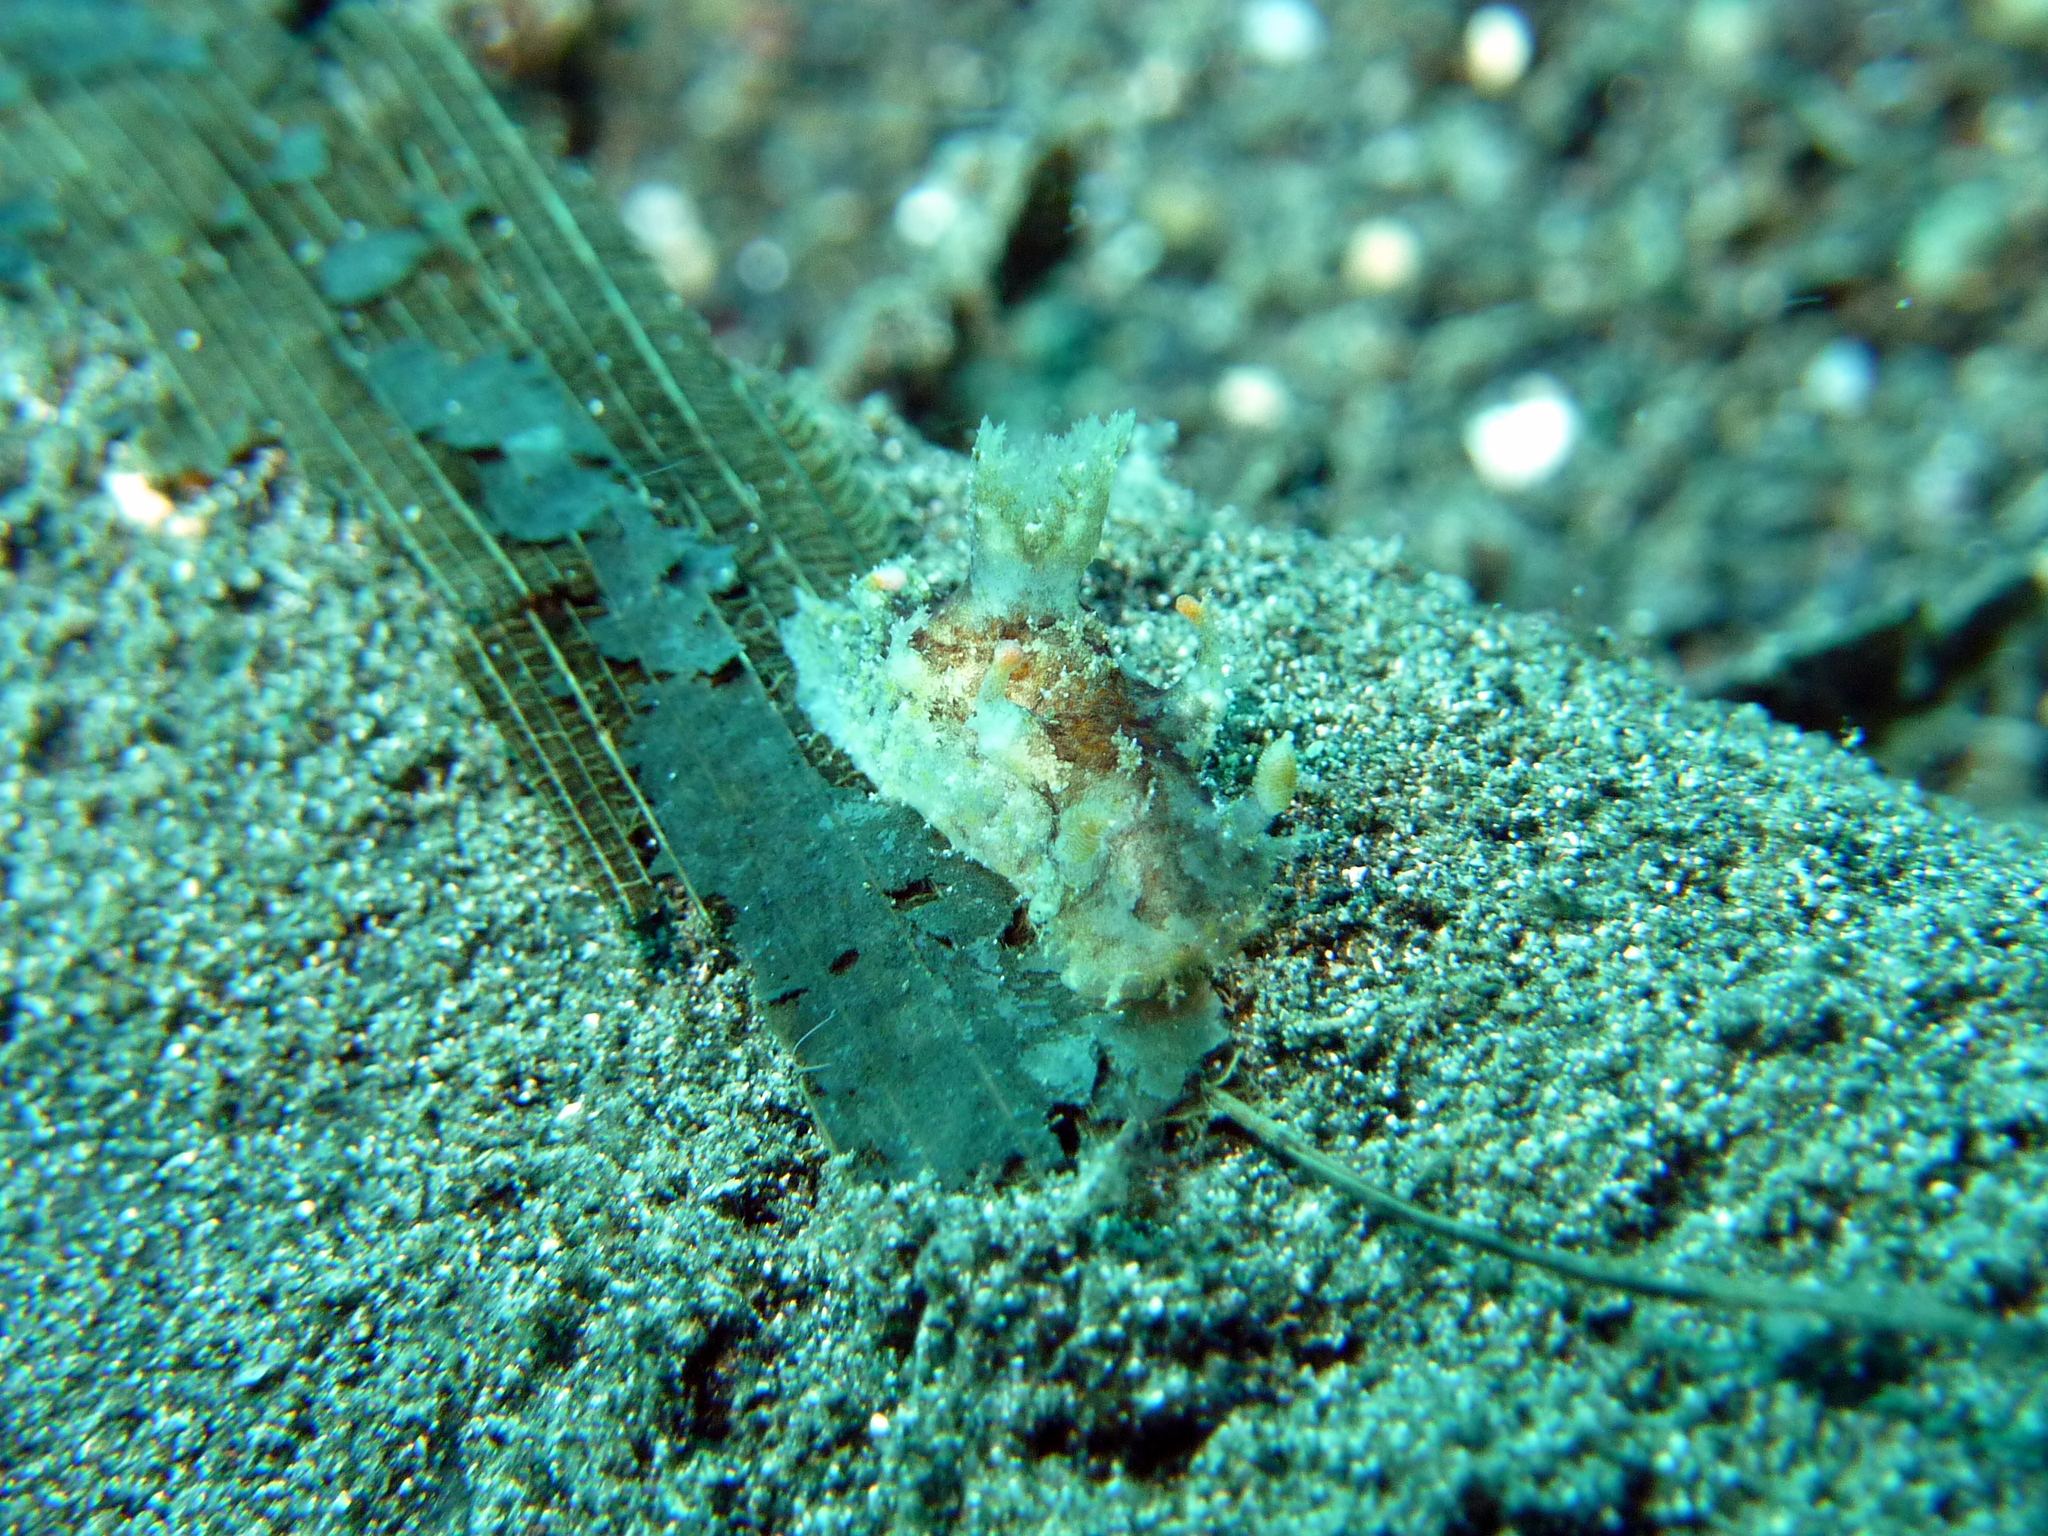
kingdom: Animalia
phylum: Mollusca
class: Gastropoda
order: Nudibranchia
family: Polyceridae
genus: Plocamopherus
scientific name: Plocamopherus ceylonicus
